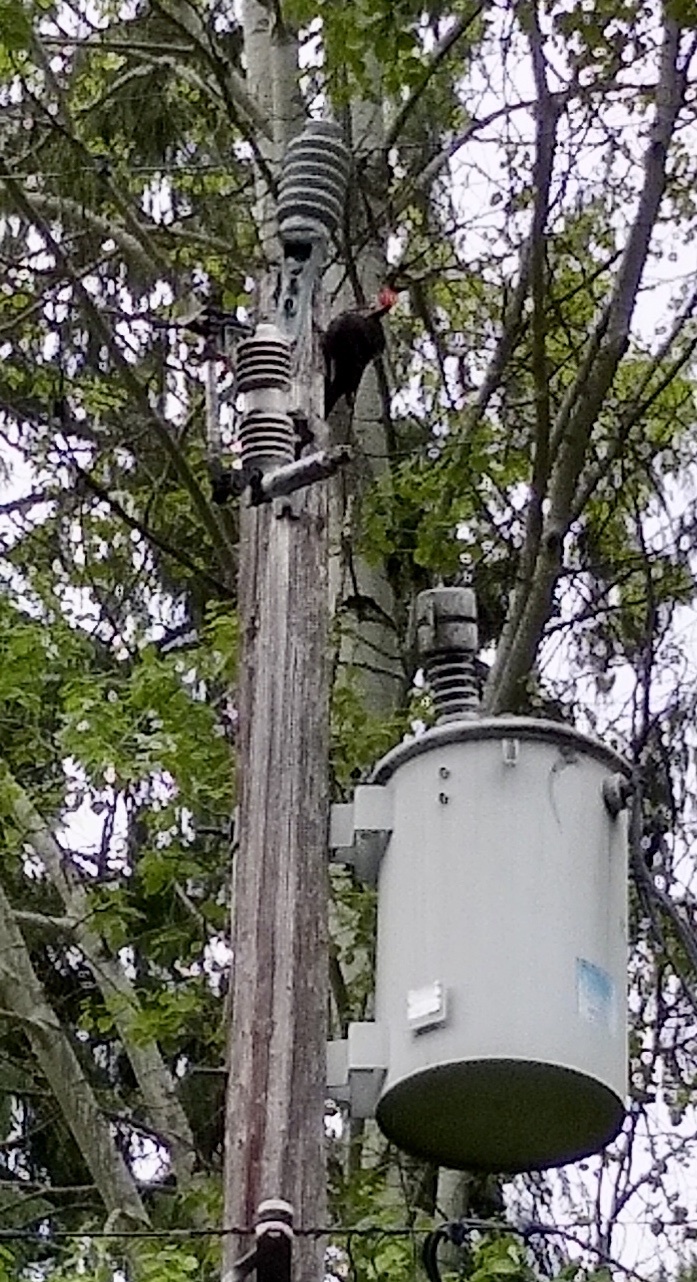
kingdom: Animalia
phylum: Chordata
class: Aves
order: Piciformes
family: Picidae
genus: Dryocopus
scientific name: Dryocopus pileatus
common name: Pileated woodpecker
